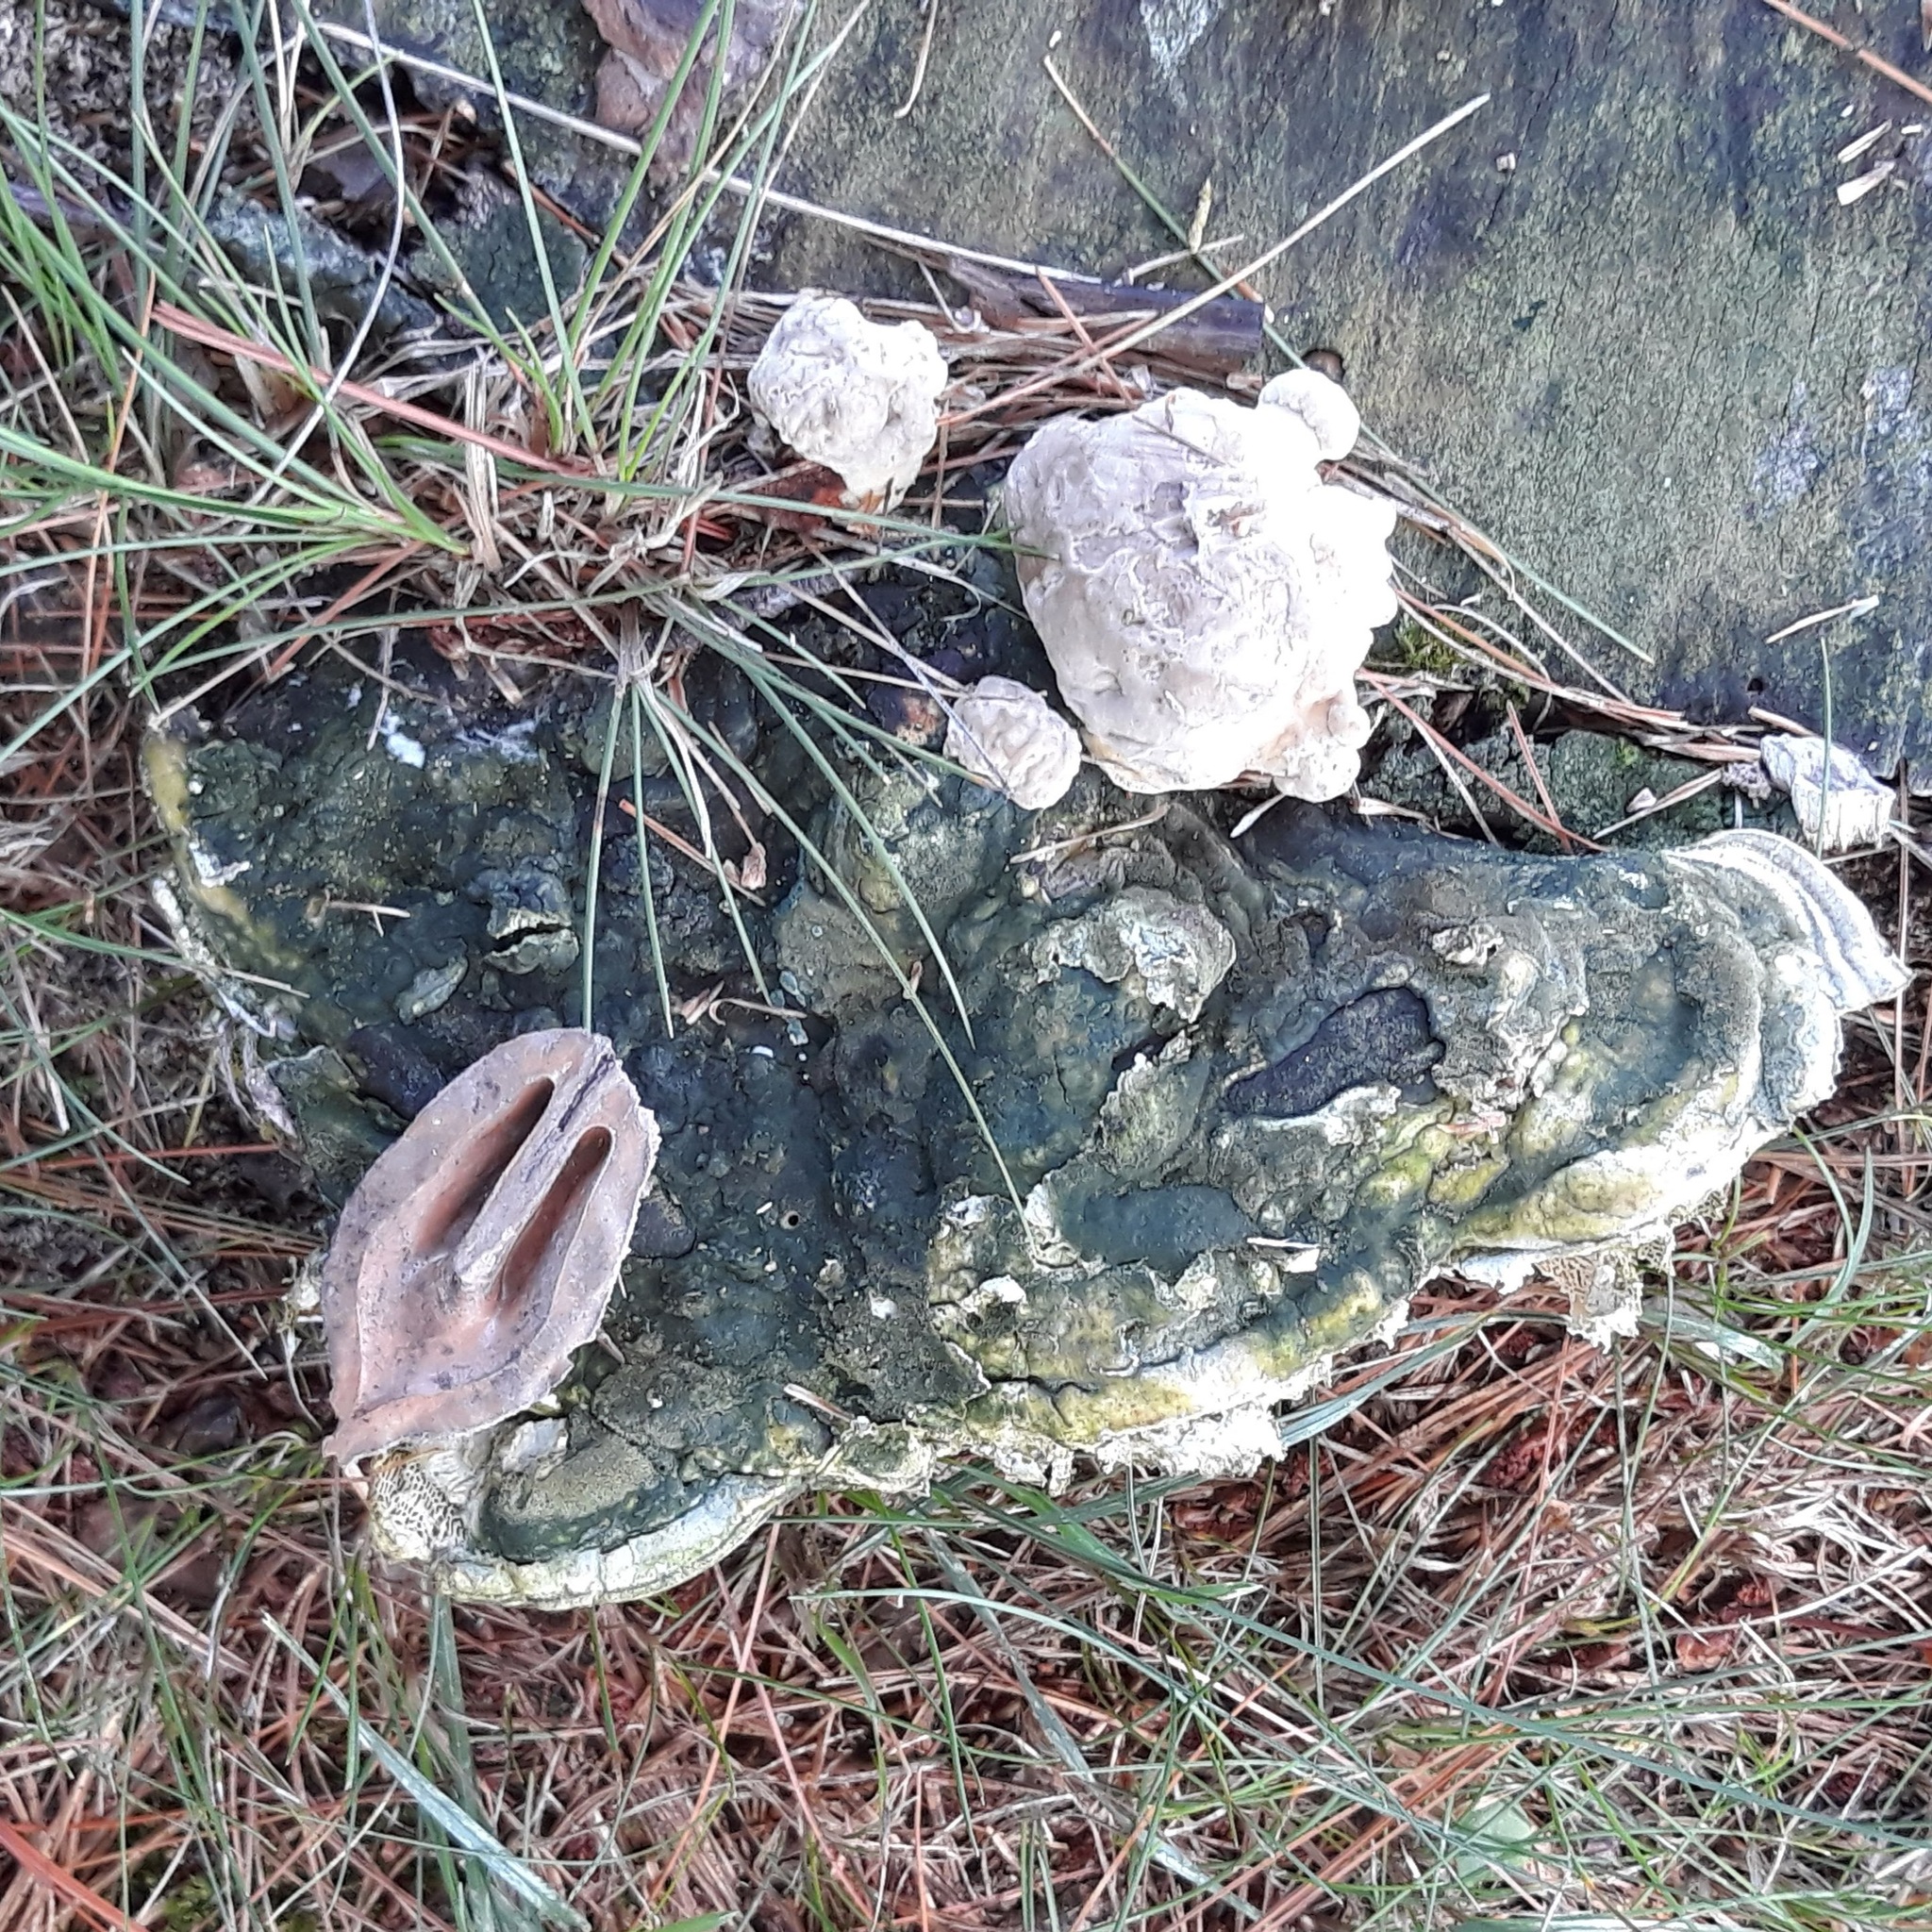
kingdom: Plantae
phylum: Tracheophyta
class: Magnoliopsida
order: Fagales
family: Juglandaceae
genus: Juglans
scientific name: Juglans cinerea
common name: Butternut
